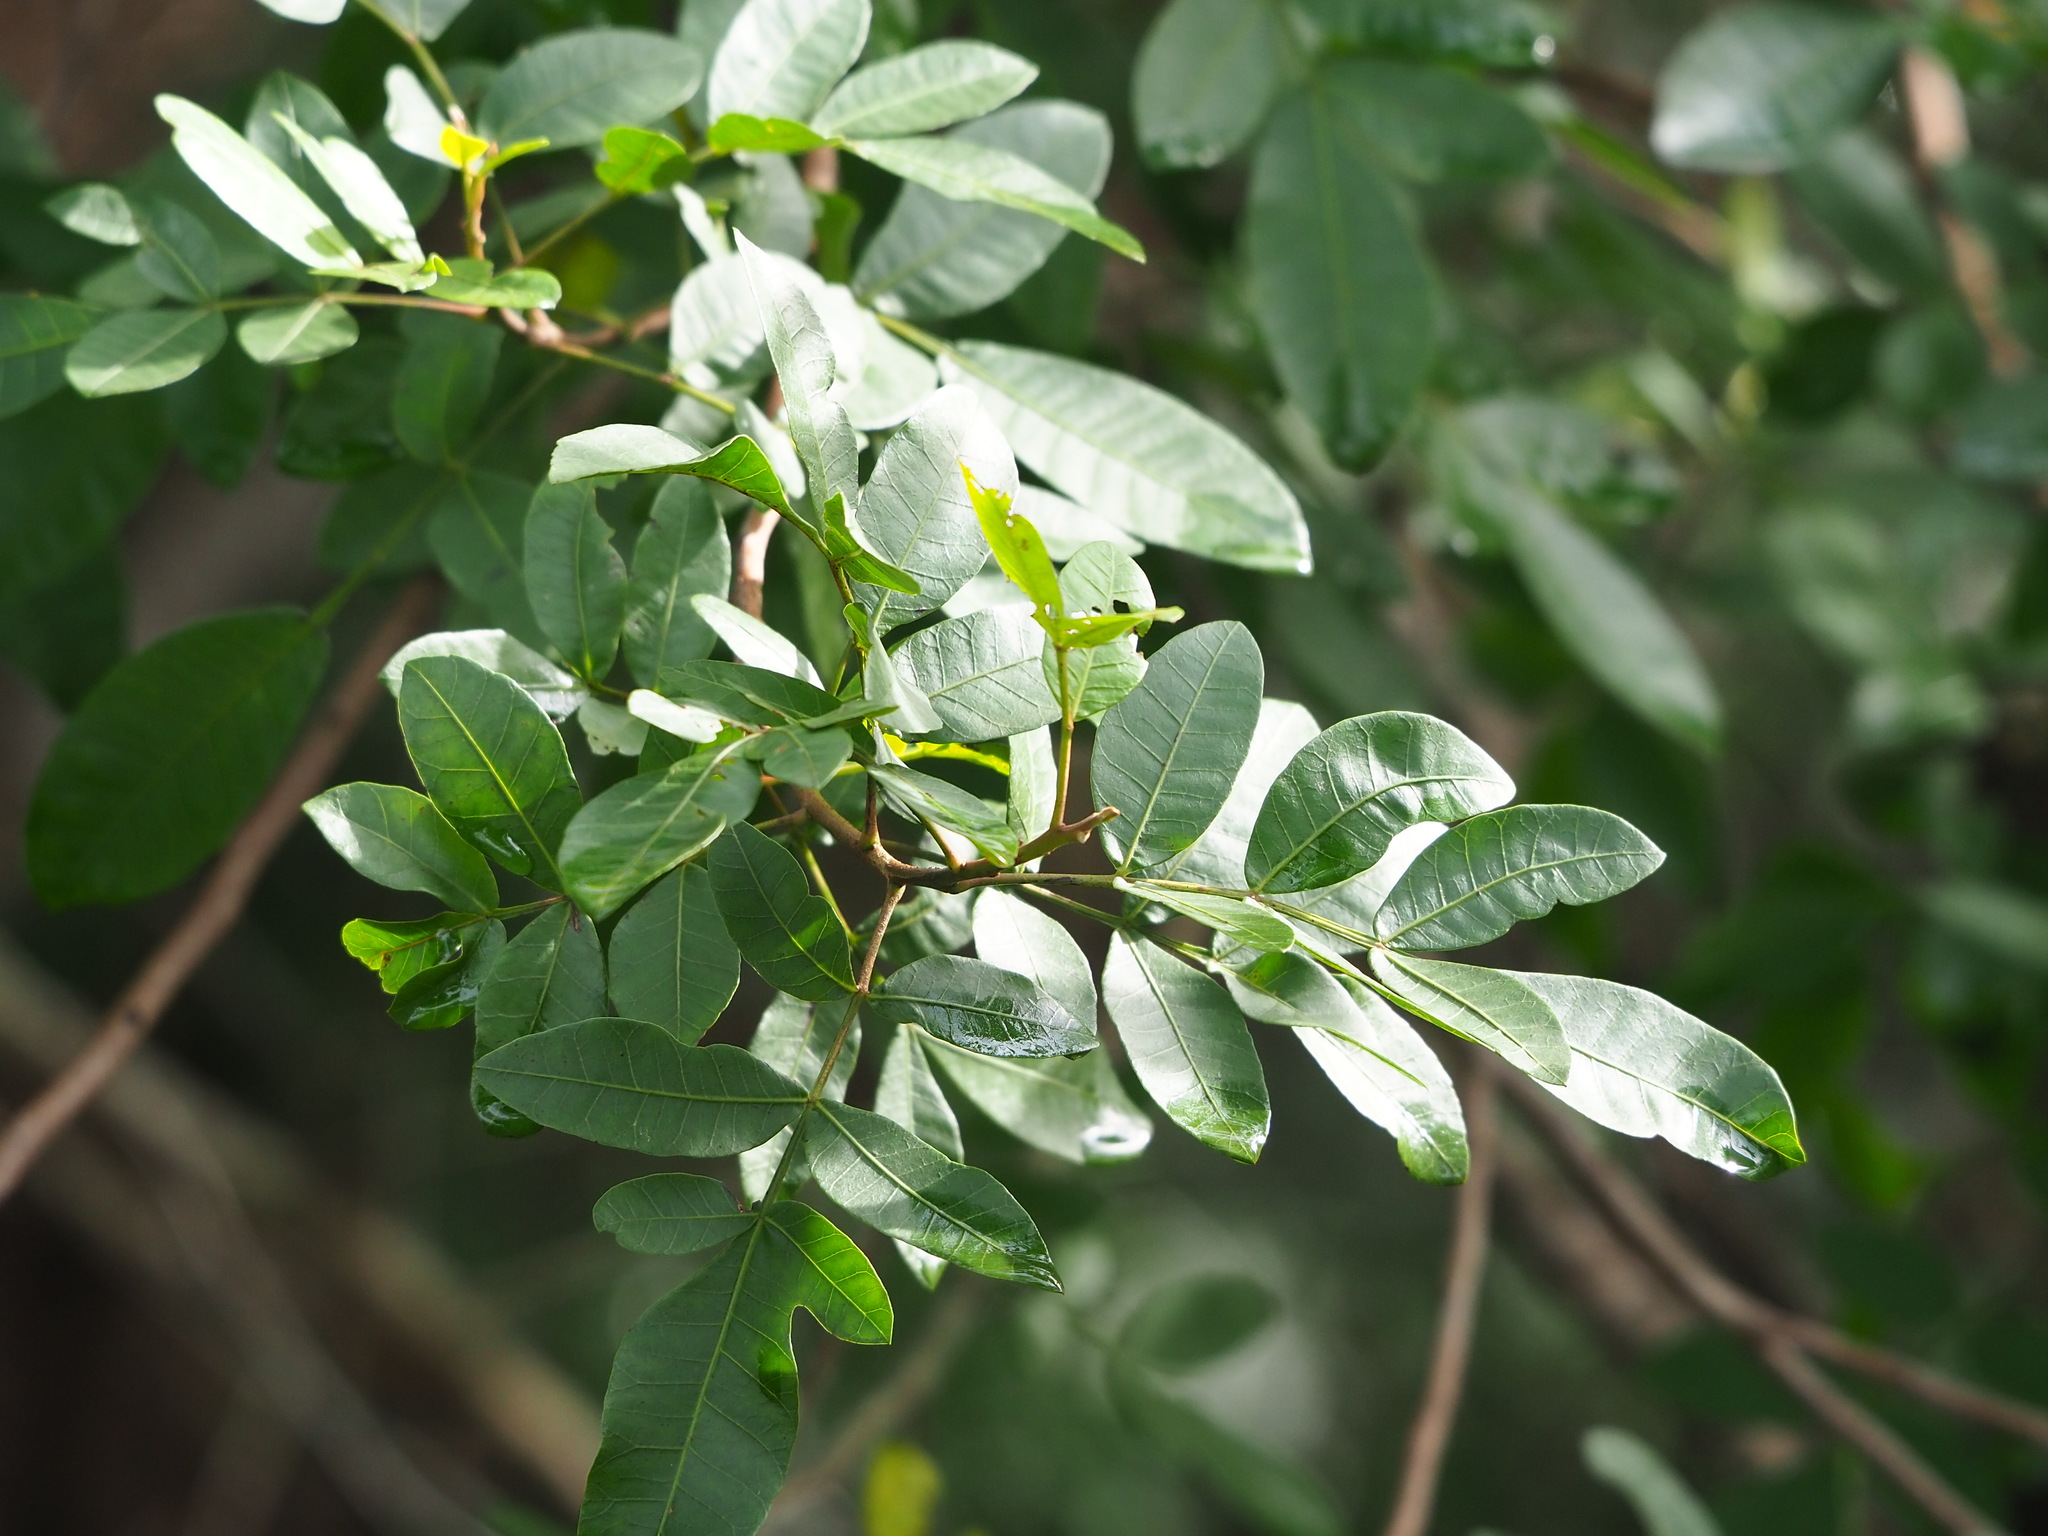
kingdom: Plantae
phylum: Tracheophyta
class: Magnoliopsida
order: Sapindales
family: Anacardiaceae
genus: Schinus
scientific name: Schinus terebinthifolia
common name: Brazilian peppertree
